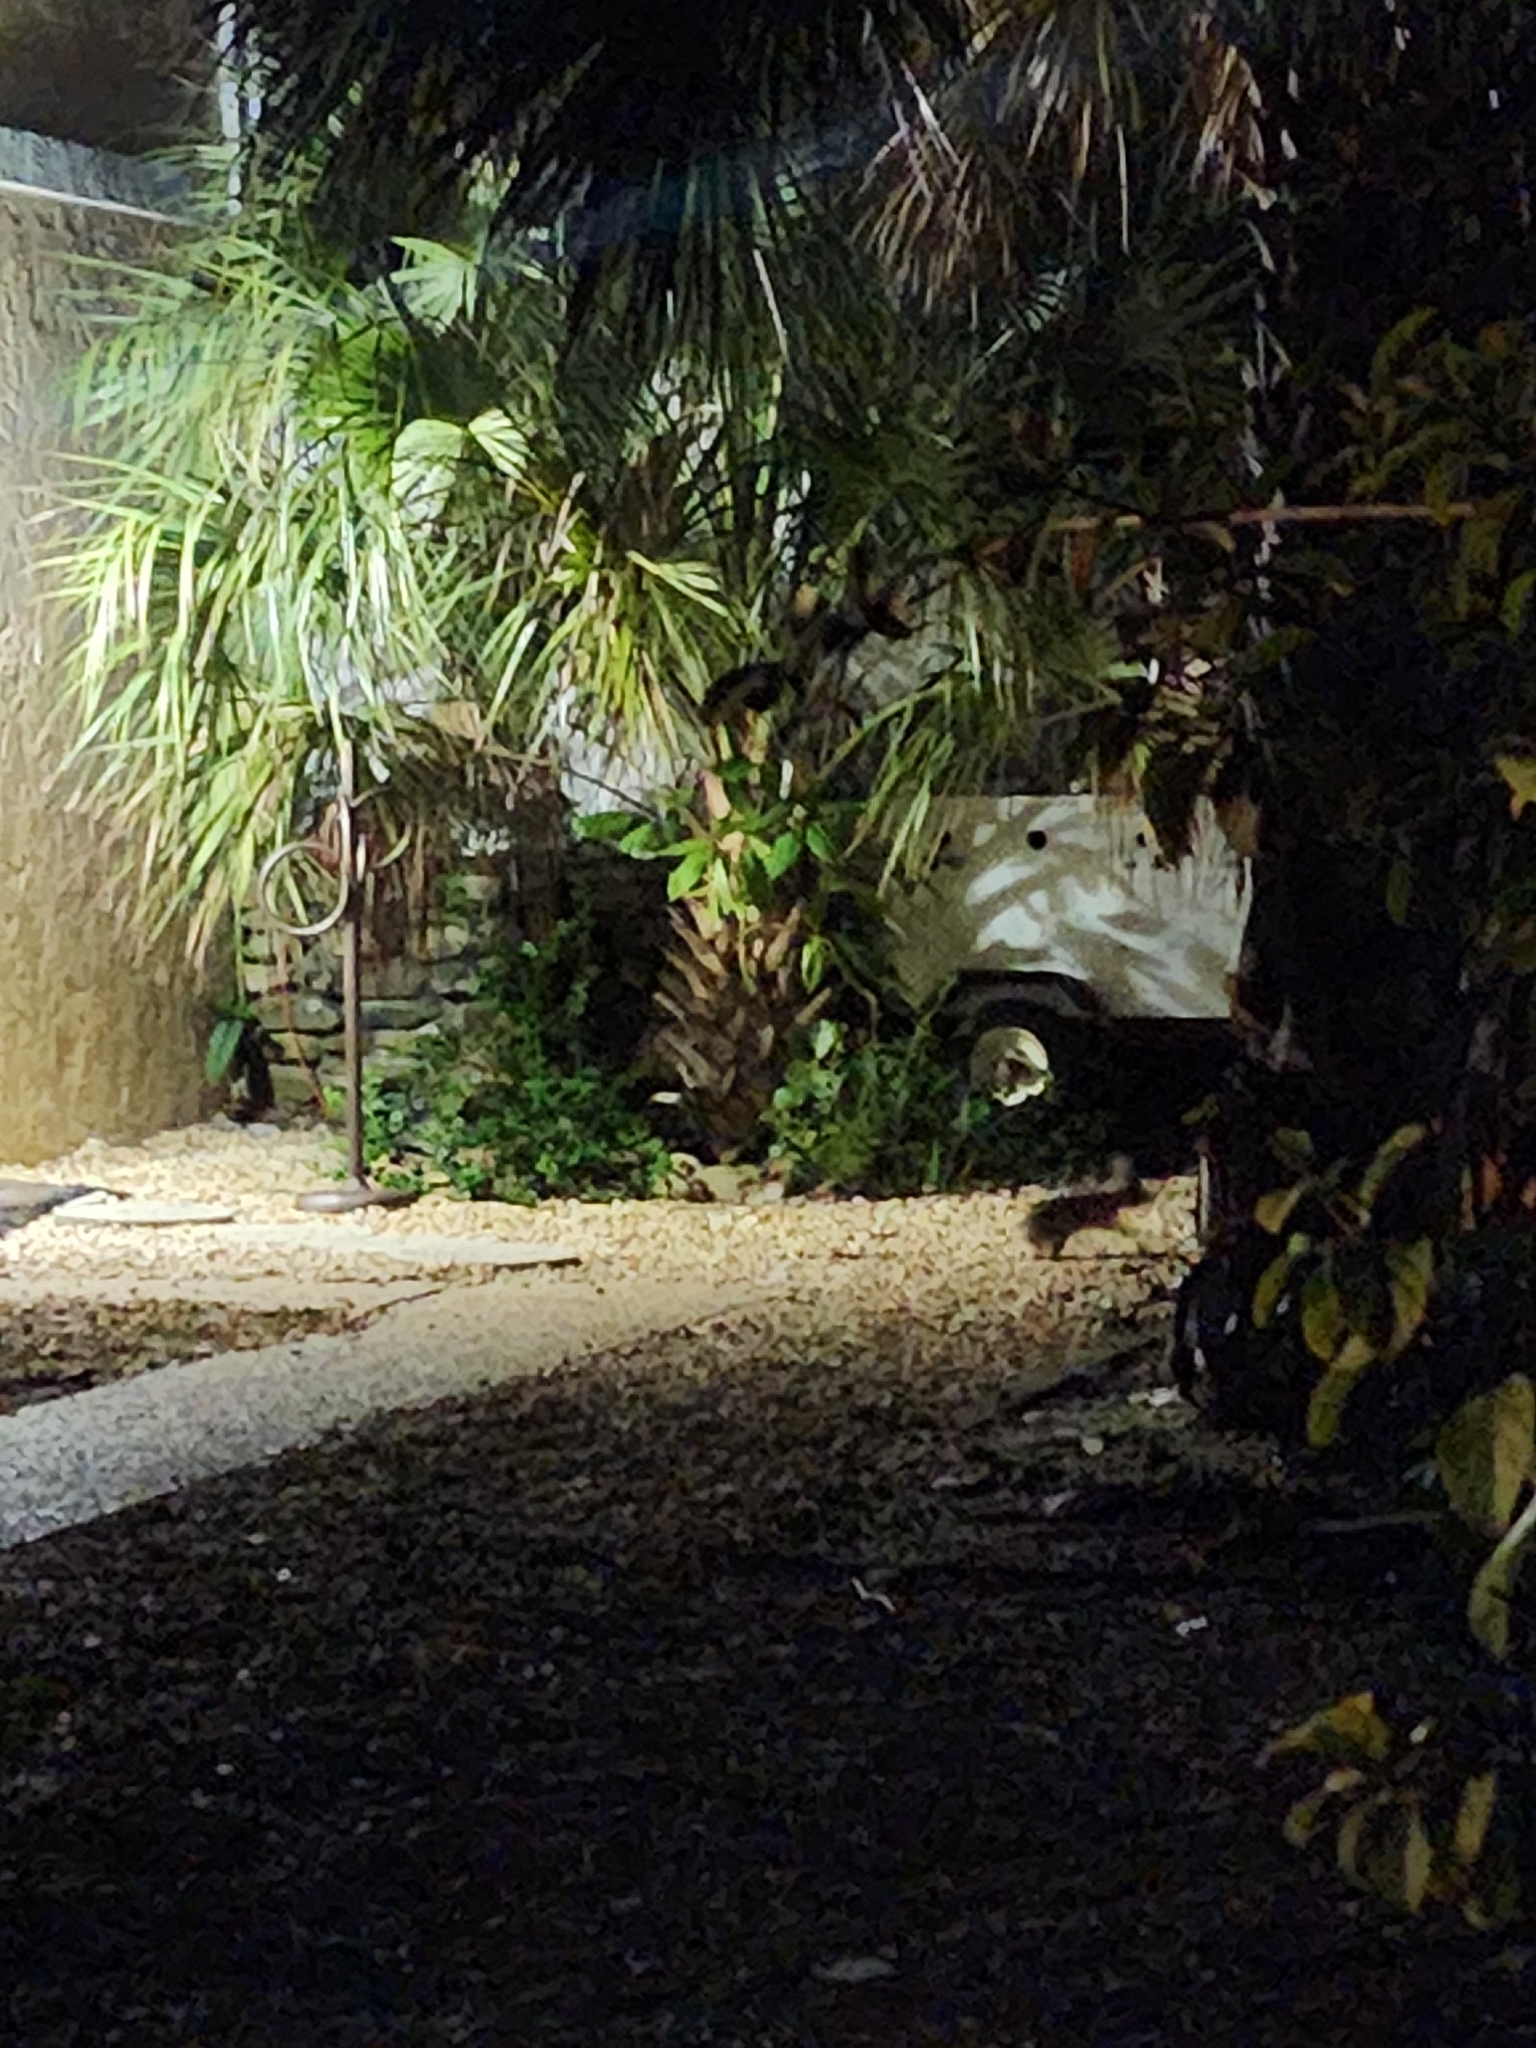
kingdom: Animalia
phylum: Chordata
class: Mammalia
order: Lagomorpha
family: Leporidae
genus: Sylvilagus
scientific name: Sylvilagus floridanus
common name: Eastern cottontail
